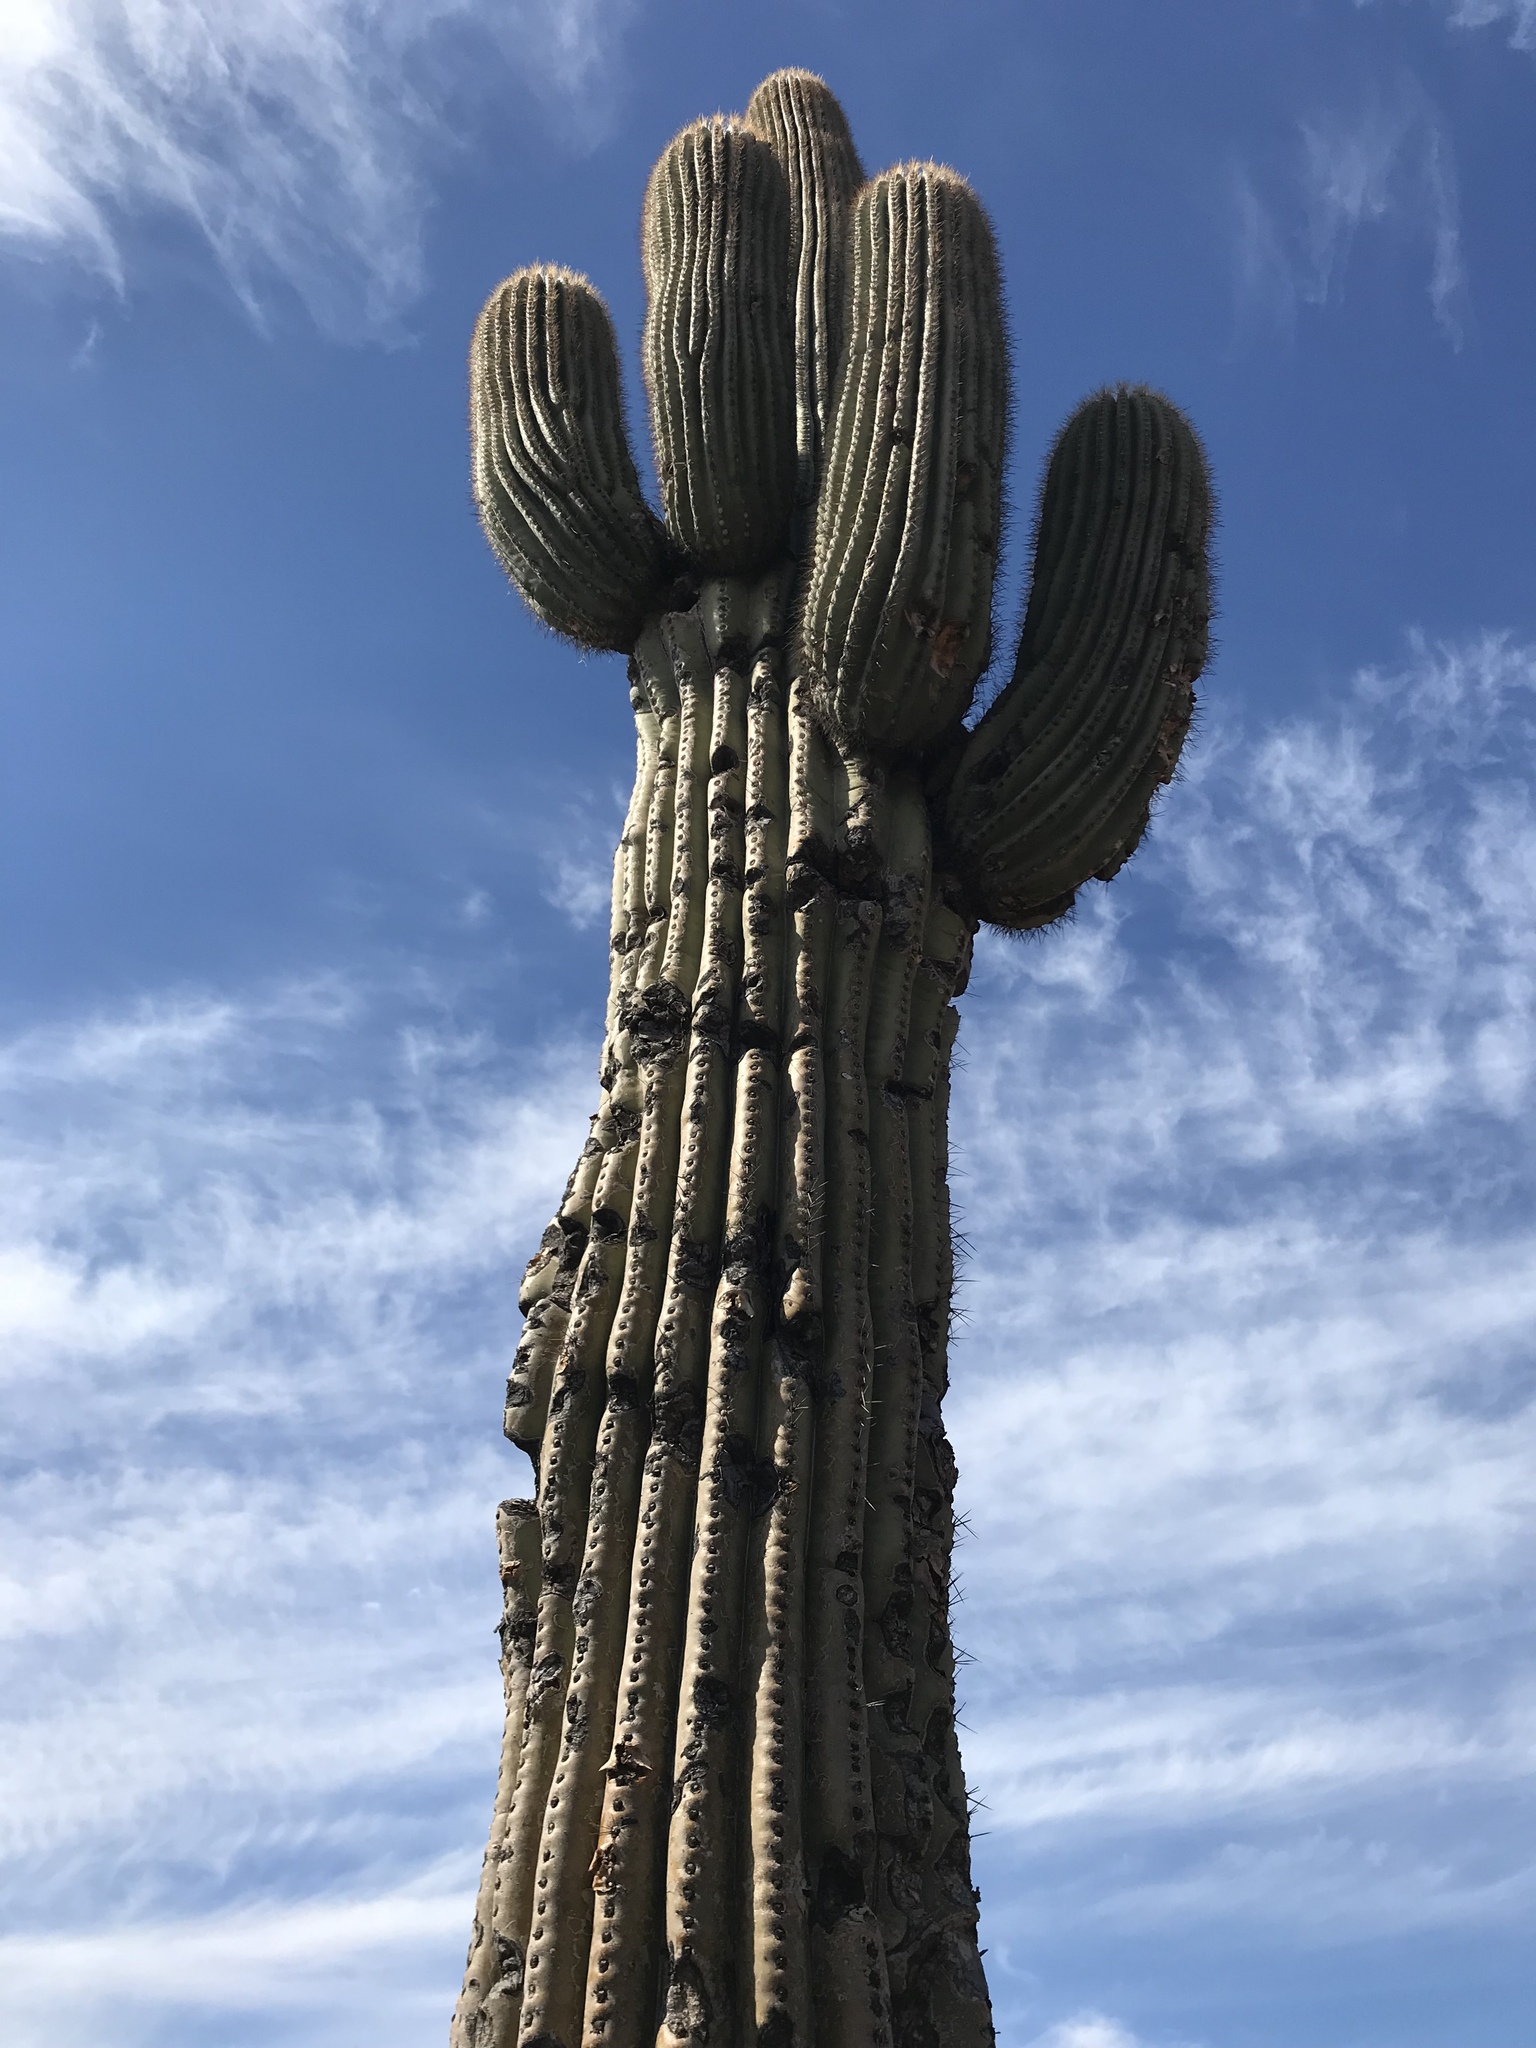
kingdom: Plantae
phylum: Tracheophyta
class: Magnoliopsida
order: Caryophyllales
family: Cactaceae
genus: Carnegiea
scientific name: Carnegiea gigantea
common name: Saguaro
